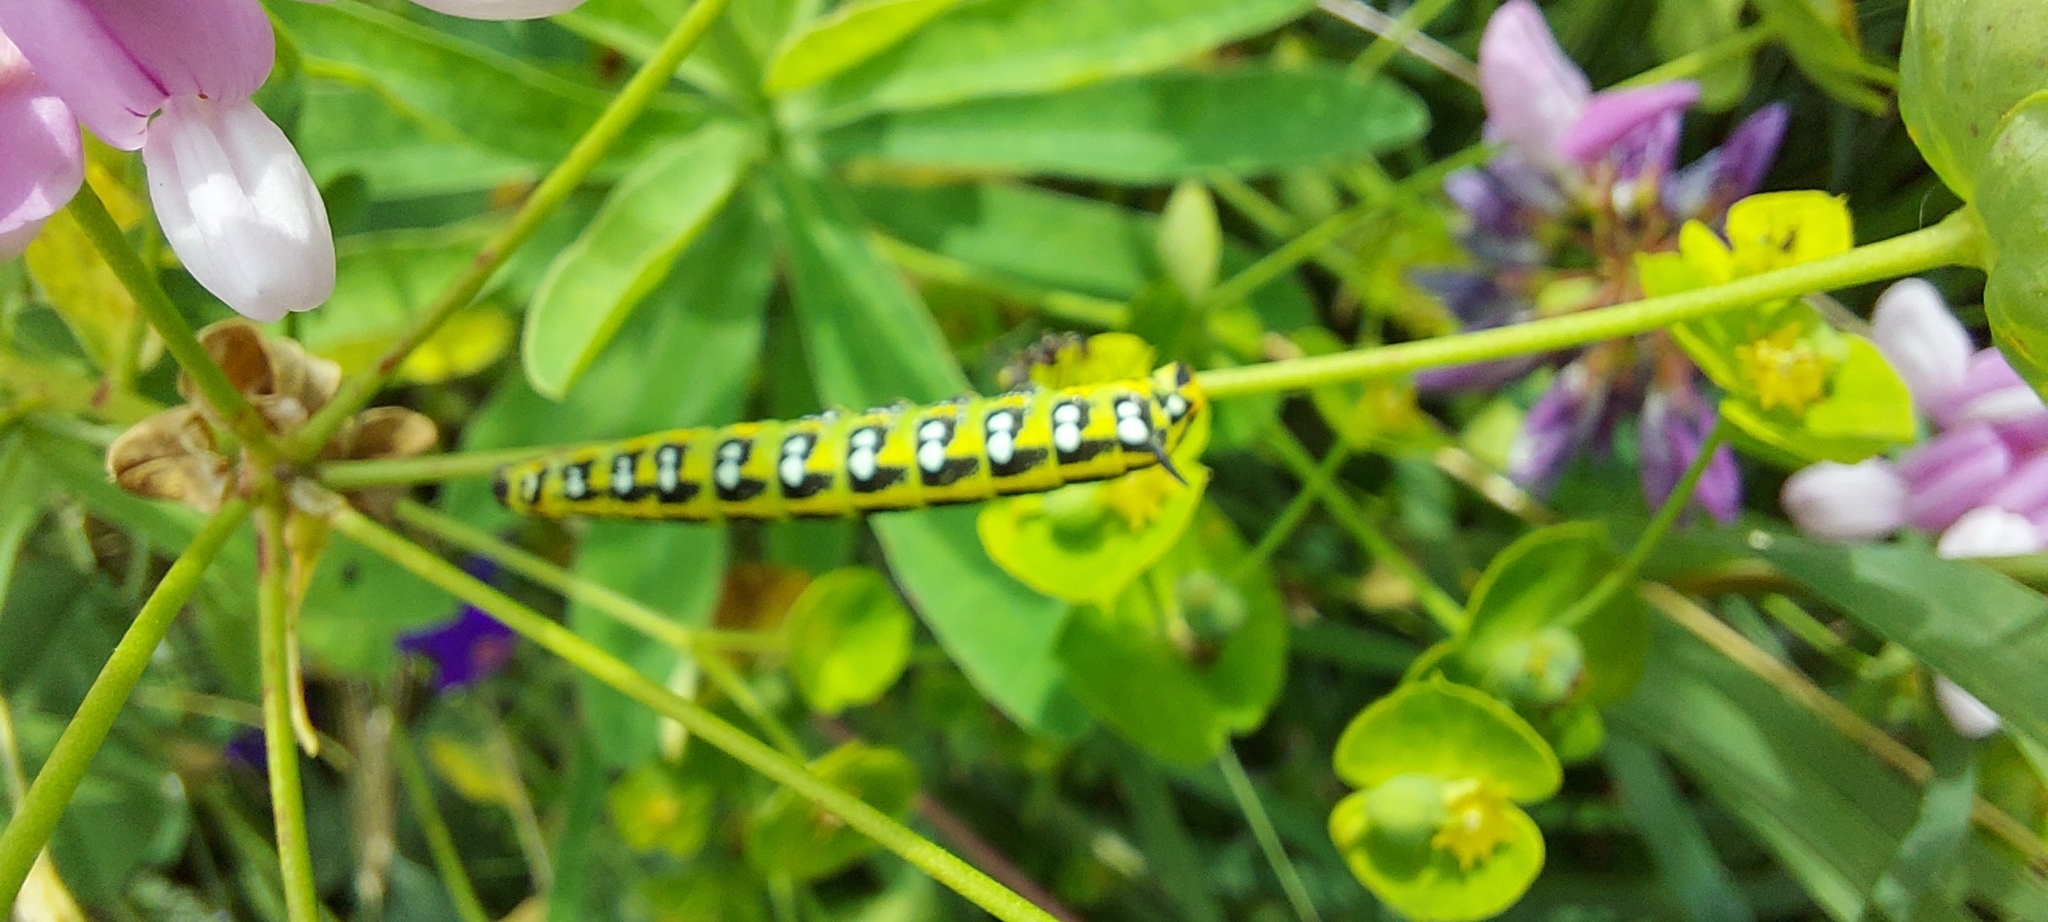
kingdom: Animalia
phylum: Arthropoda
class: Insecta
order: Lepidoptera
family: Sphingidae
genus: Hyles
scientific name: Hyles euphorbiae
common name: Spurge hawk-moth
